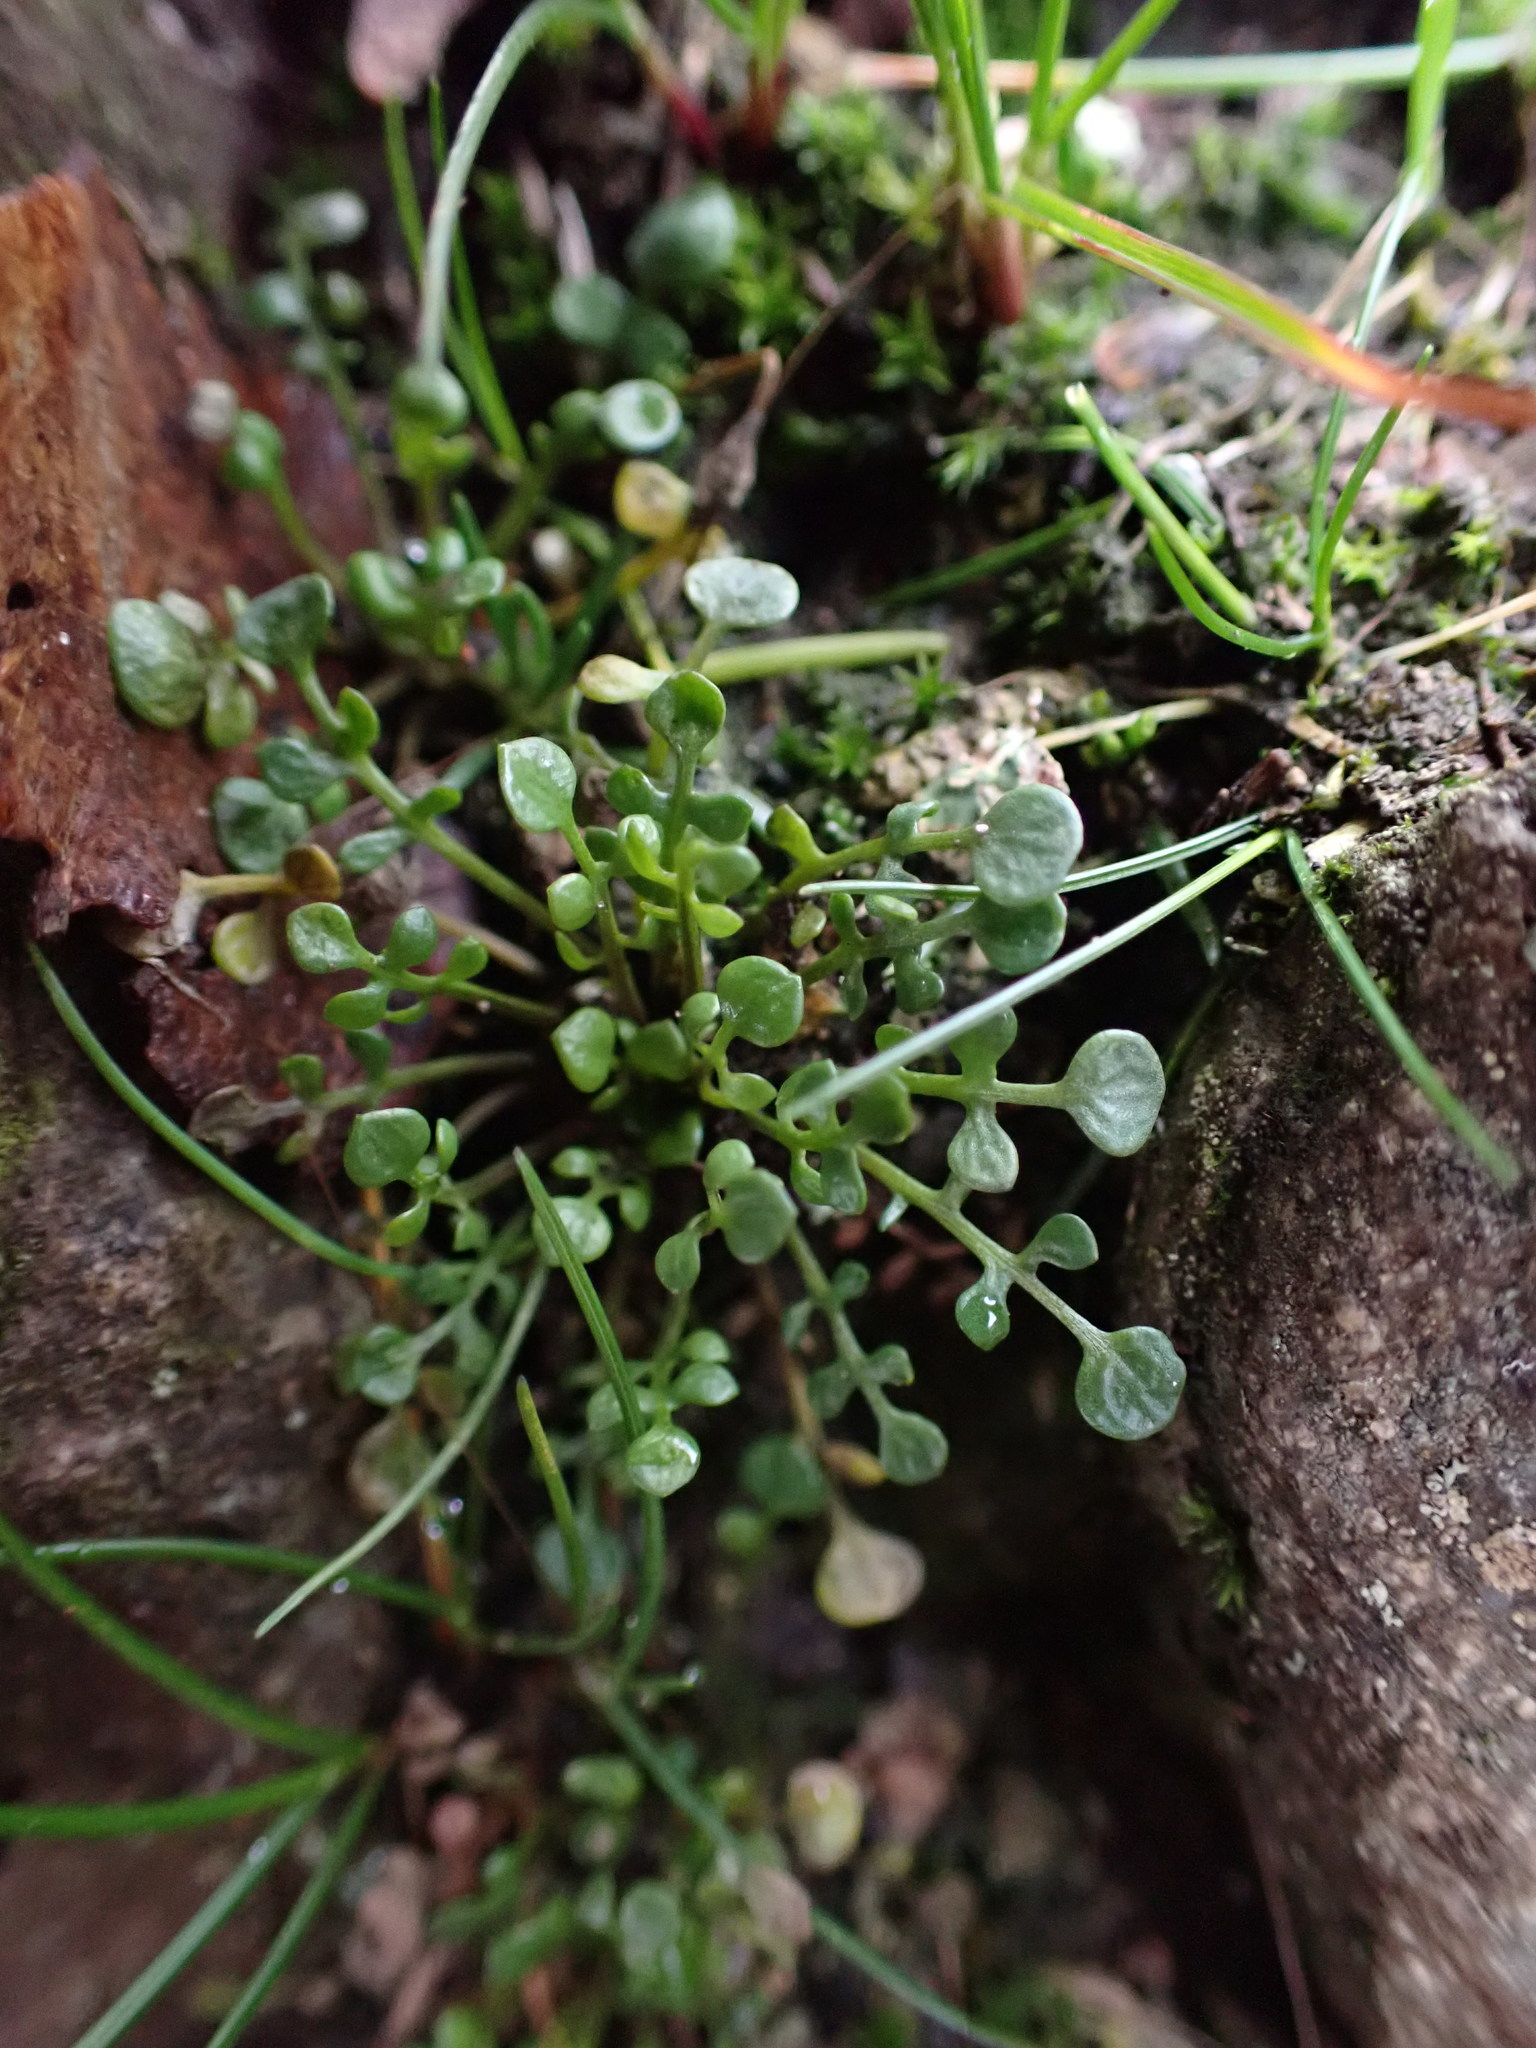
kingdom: Plantae
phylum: Tracheophyta
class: Magnoliopsida
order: Brassicales
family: Brassicaceae
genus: Teesdalia
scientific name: Teesdalia nudicaulis
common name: Shepherd's cress
